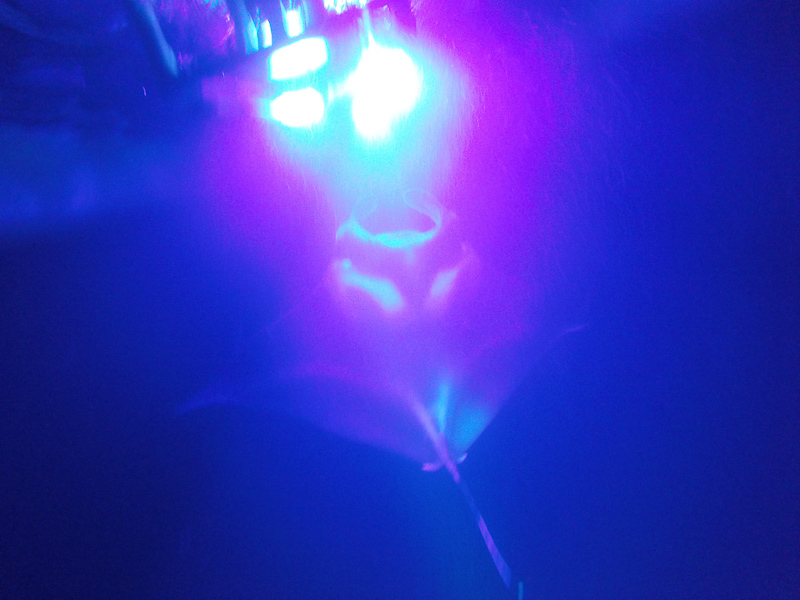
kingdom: Animalia
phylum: Chordata
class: Elasmobranchii
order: Myliobatiformes
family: Myliobatidae
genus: Mobula
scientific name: Mobula alfredi
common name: Reef manta ray
